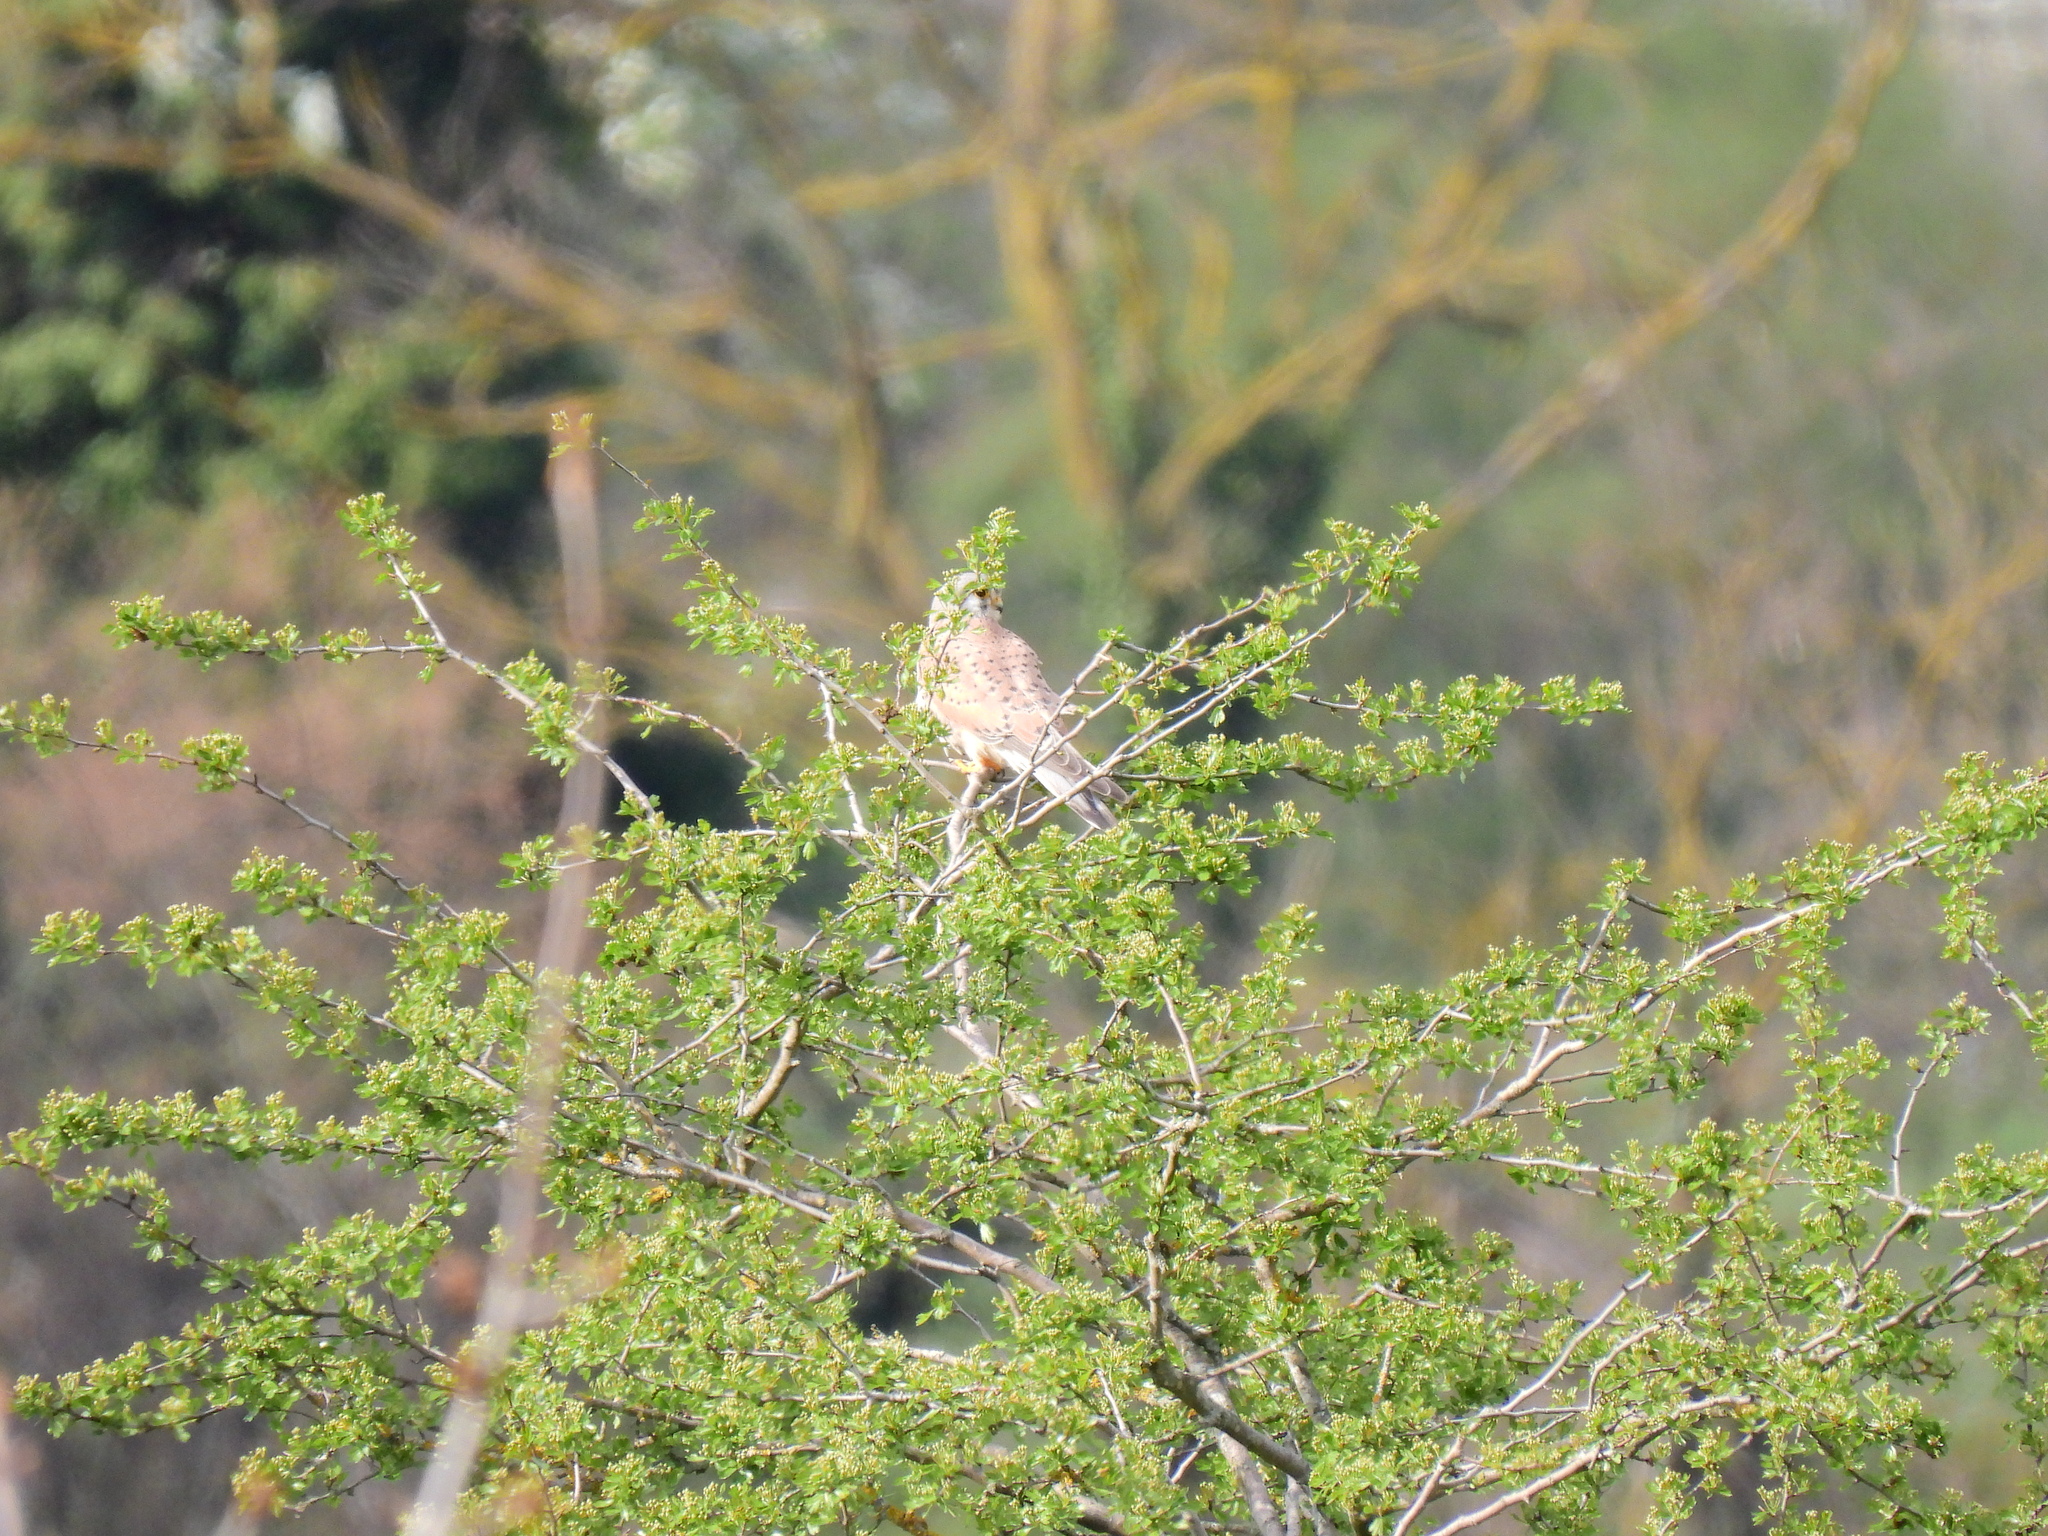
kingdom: Animalia
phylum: Chordata
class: Aves
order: Falconiformes
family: Falconidae
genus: Falco
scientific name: Falco tinnunculus
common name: Common kestrel
